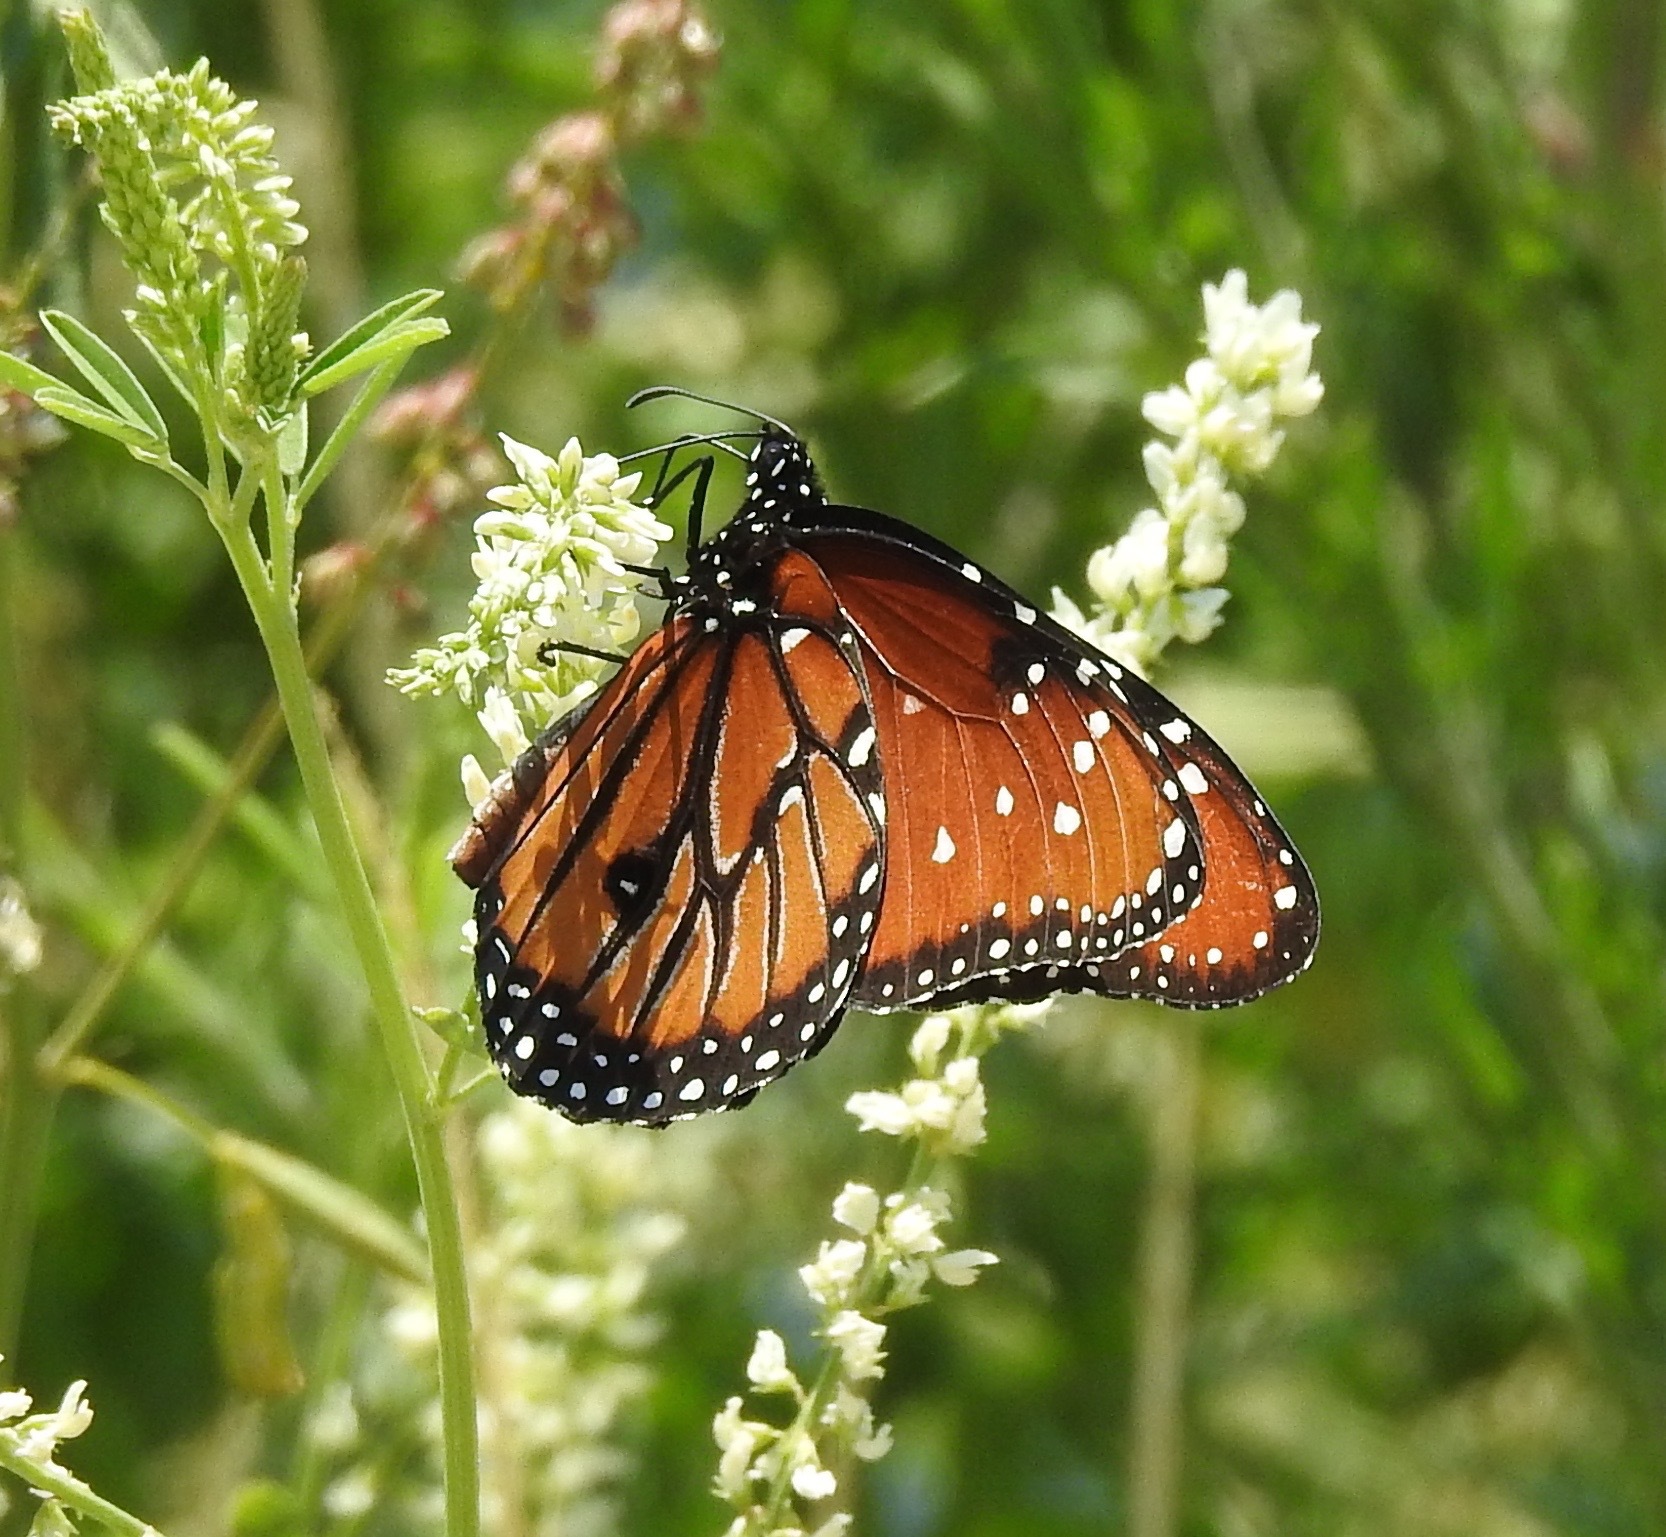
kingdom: Animalia
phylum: Arthropoda
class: Insecta
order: Lepidoptera
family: Nymphalidae
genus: Danaus
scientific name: Danaus gilippus
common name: Queen
